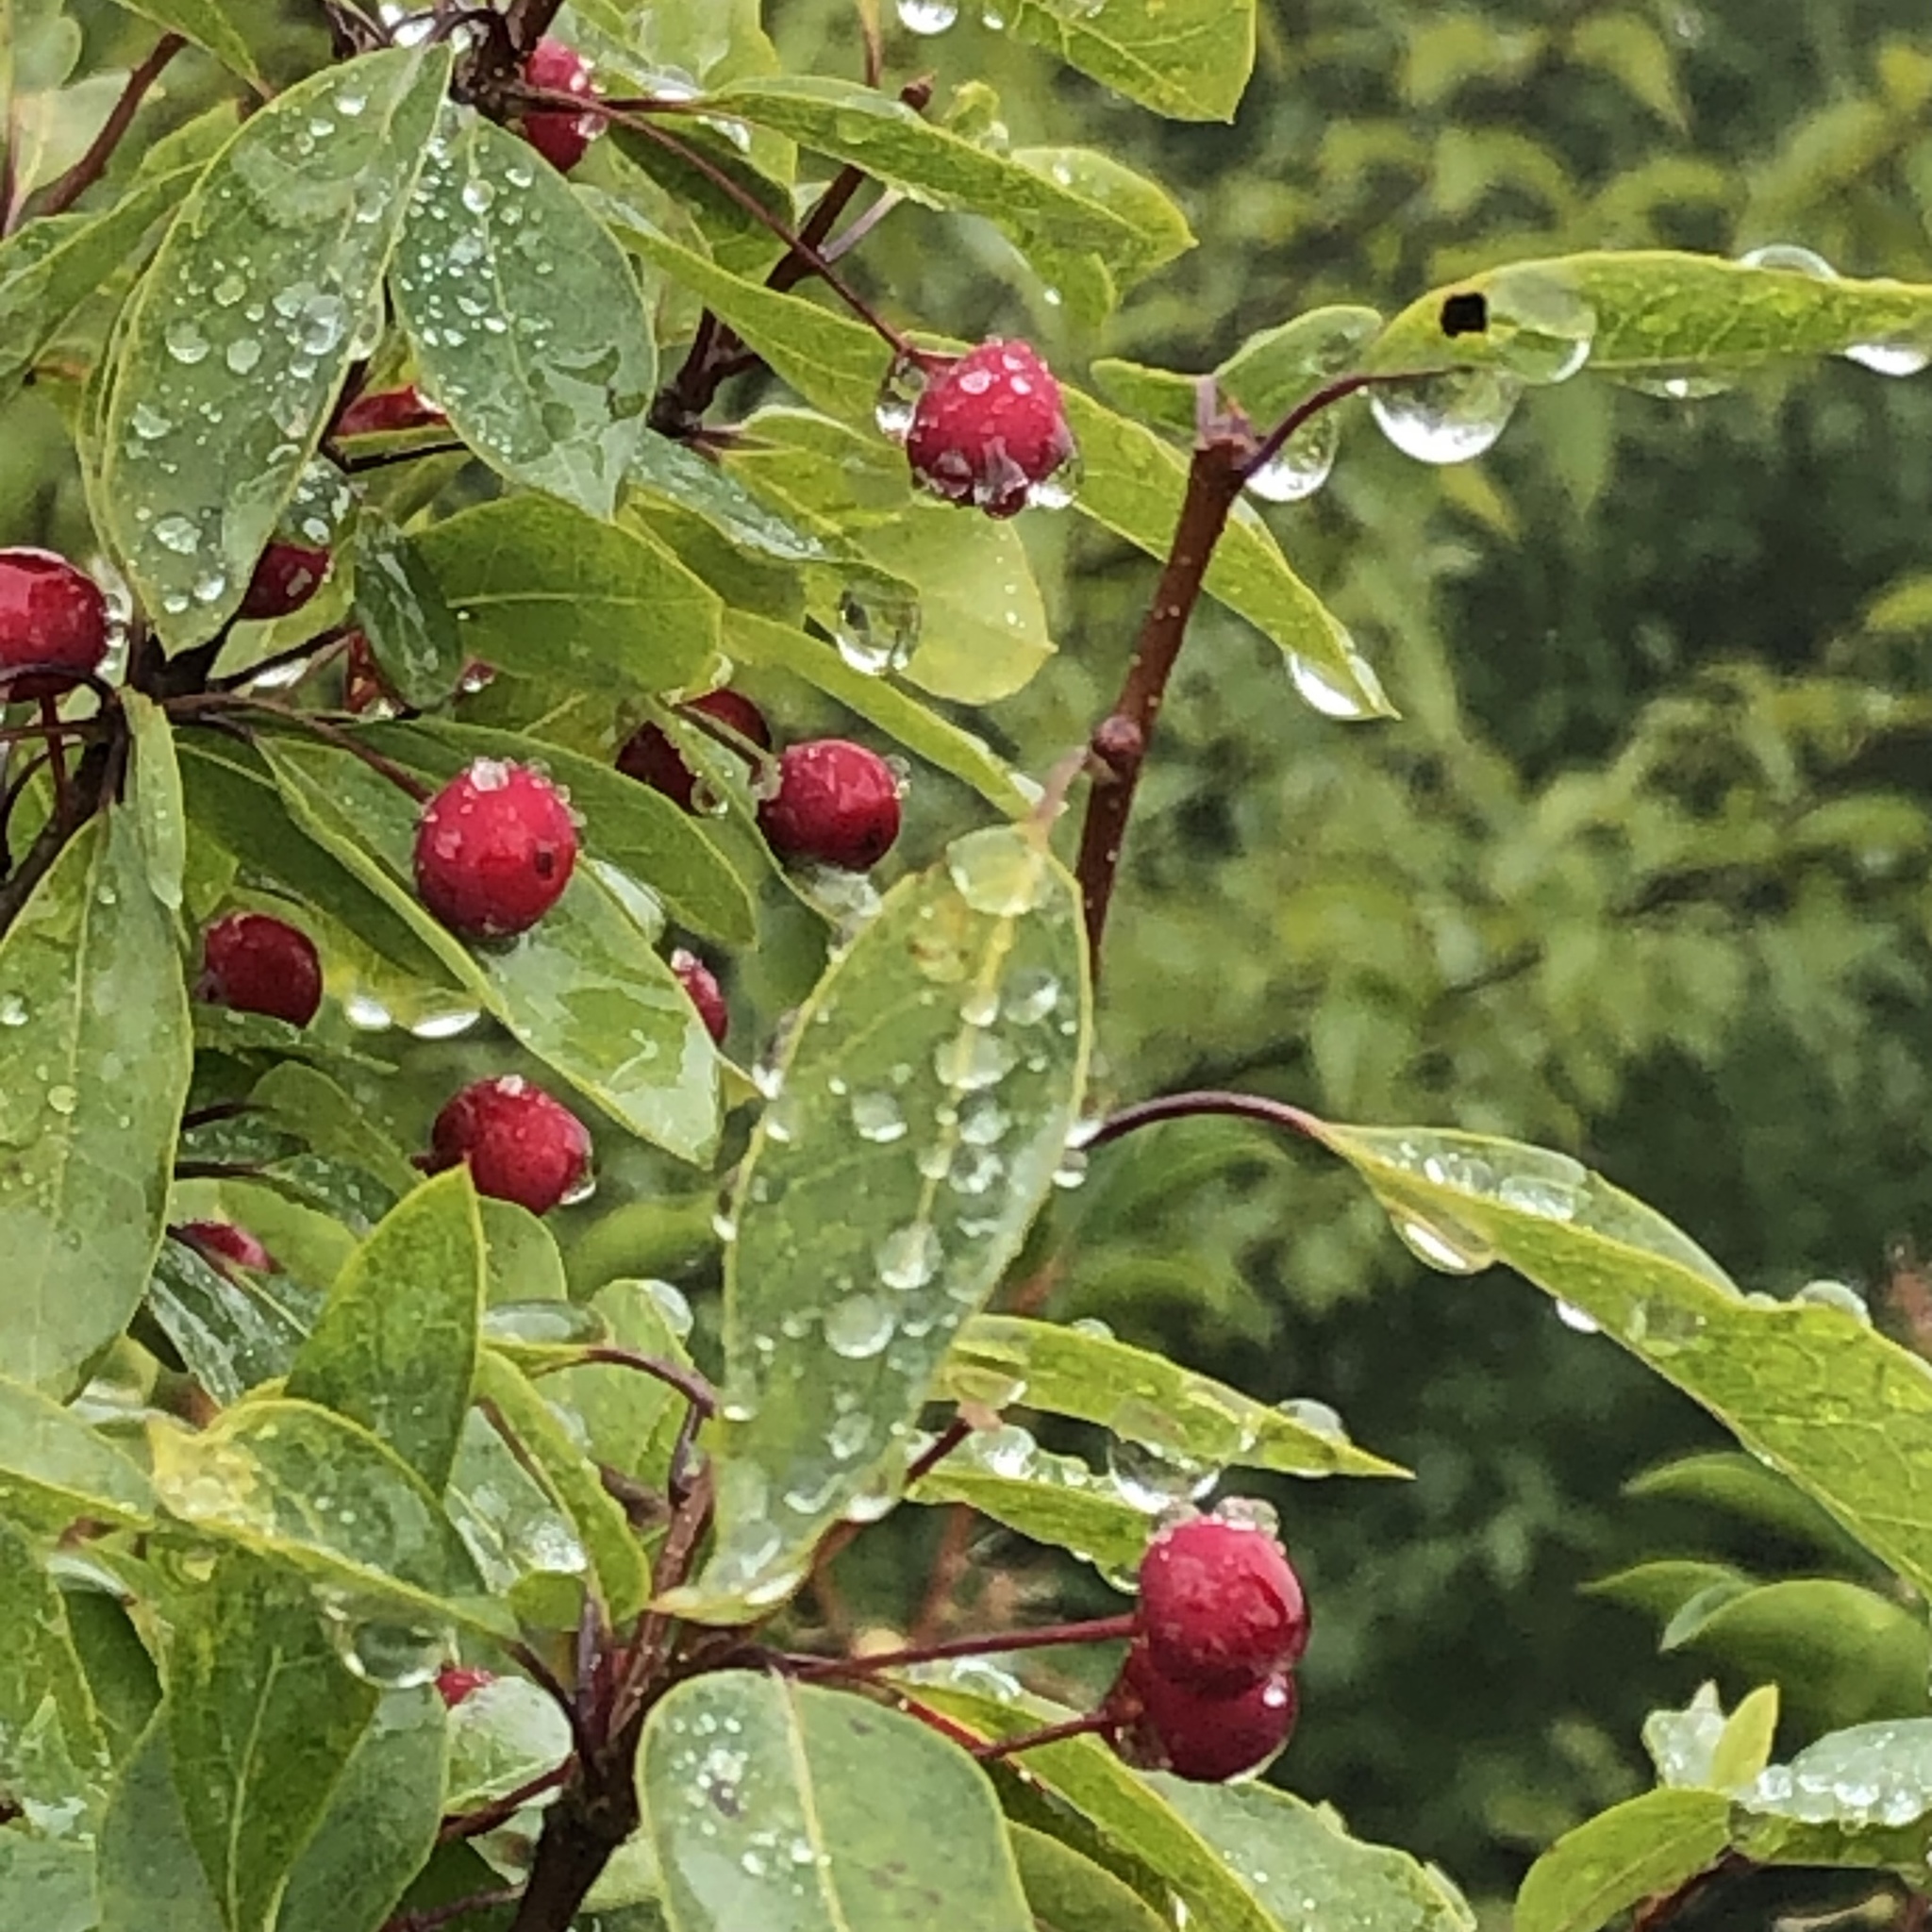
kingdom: Plantae
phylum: Tracheophyta
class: Magnoliopsida
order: Aquifoliales
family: Aquifoliaceae
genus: Ilex
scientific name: Ilex mucronata
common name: Catberry
